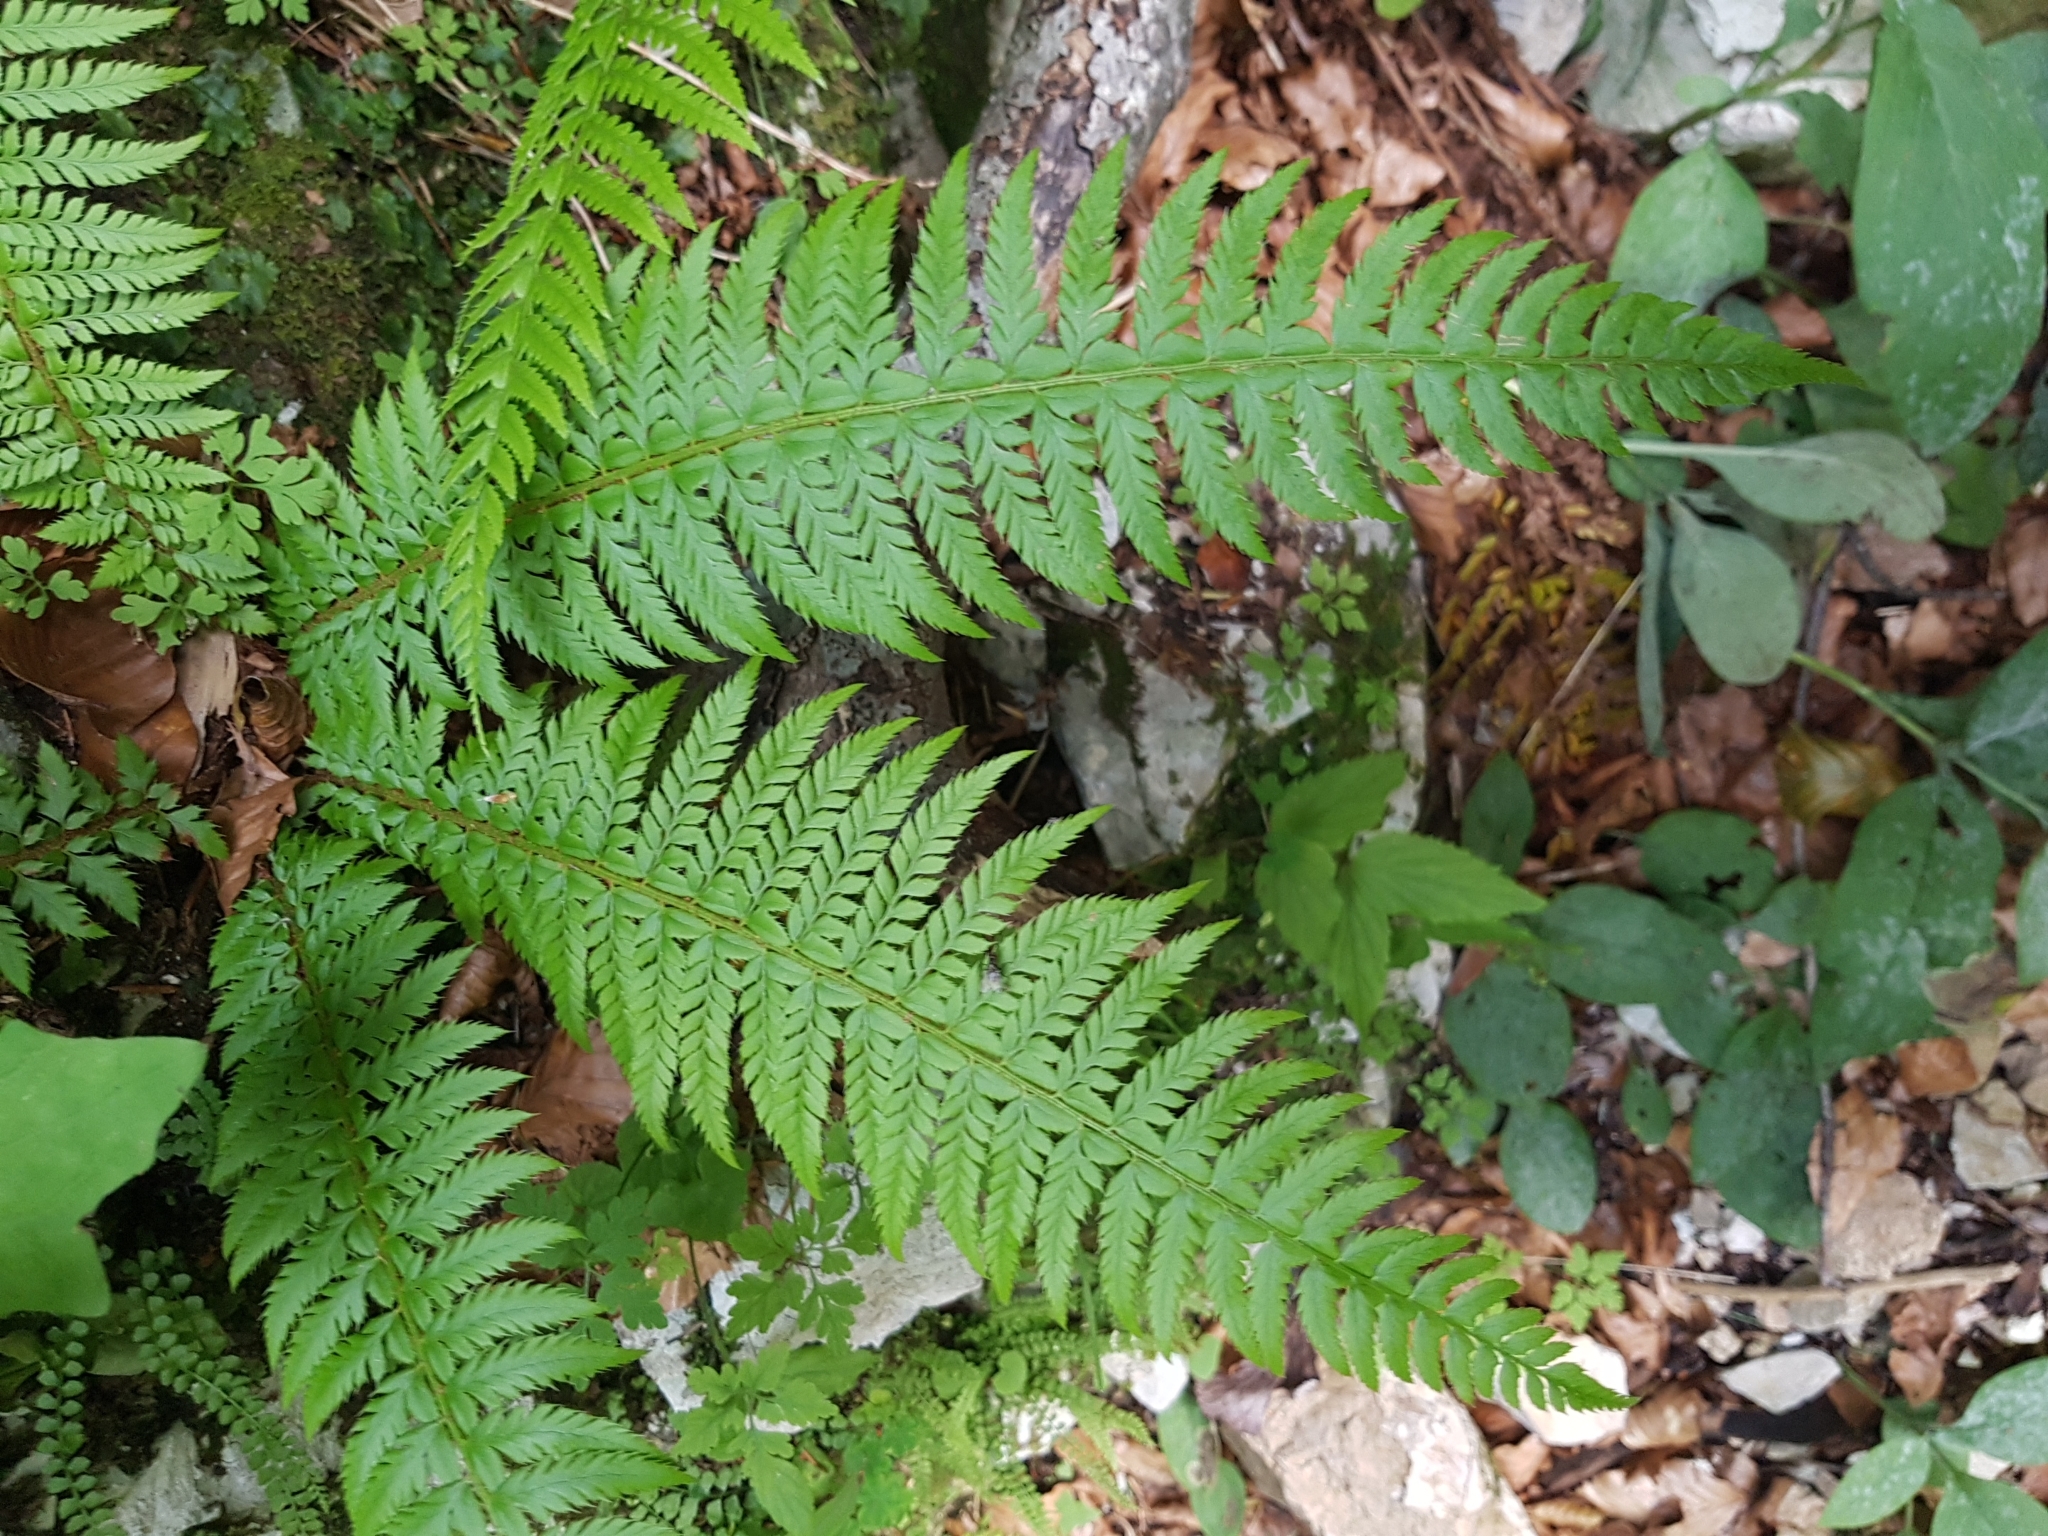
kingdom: Plantae
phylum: Tracheophyta
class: Polypodiopsida
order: Polypodiales
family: Dryopteridaceae
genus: Polystichum
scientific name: Polystichum aculeatum
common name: Hard shield-fern
